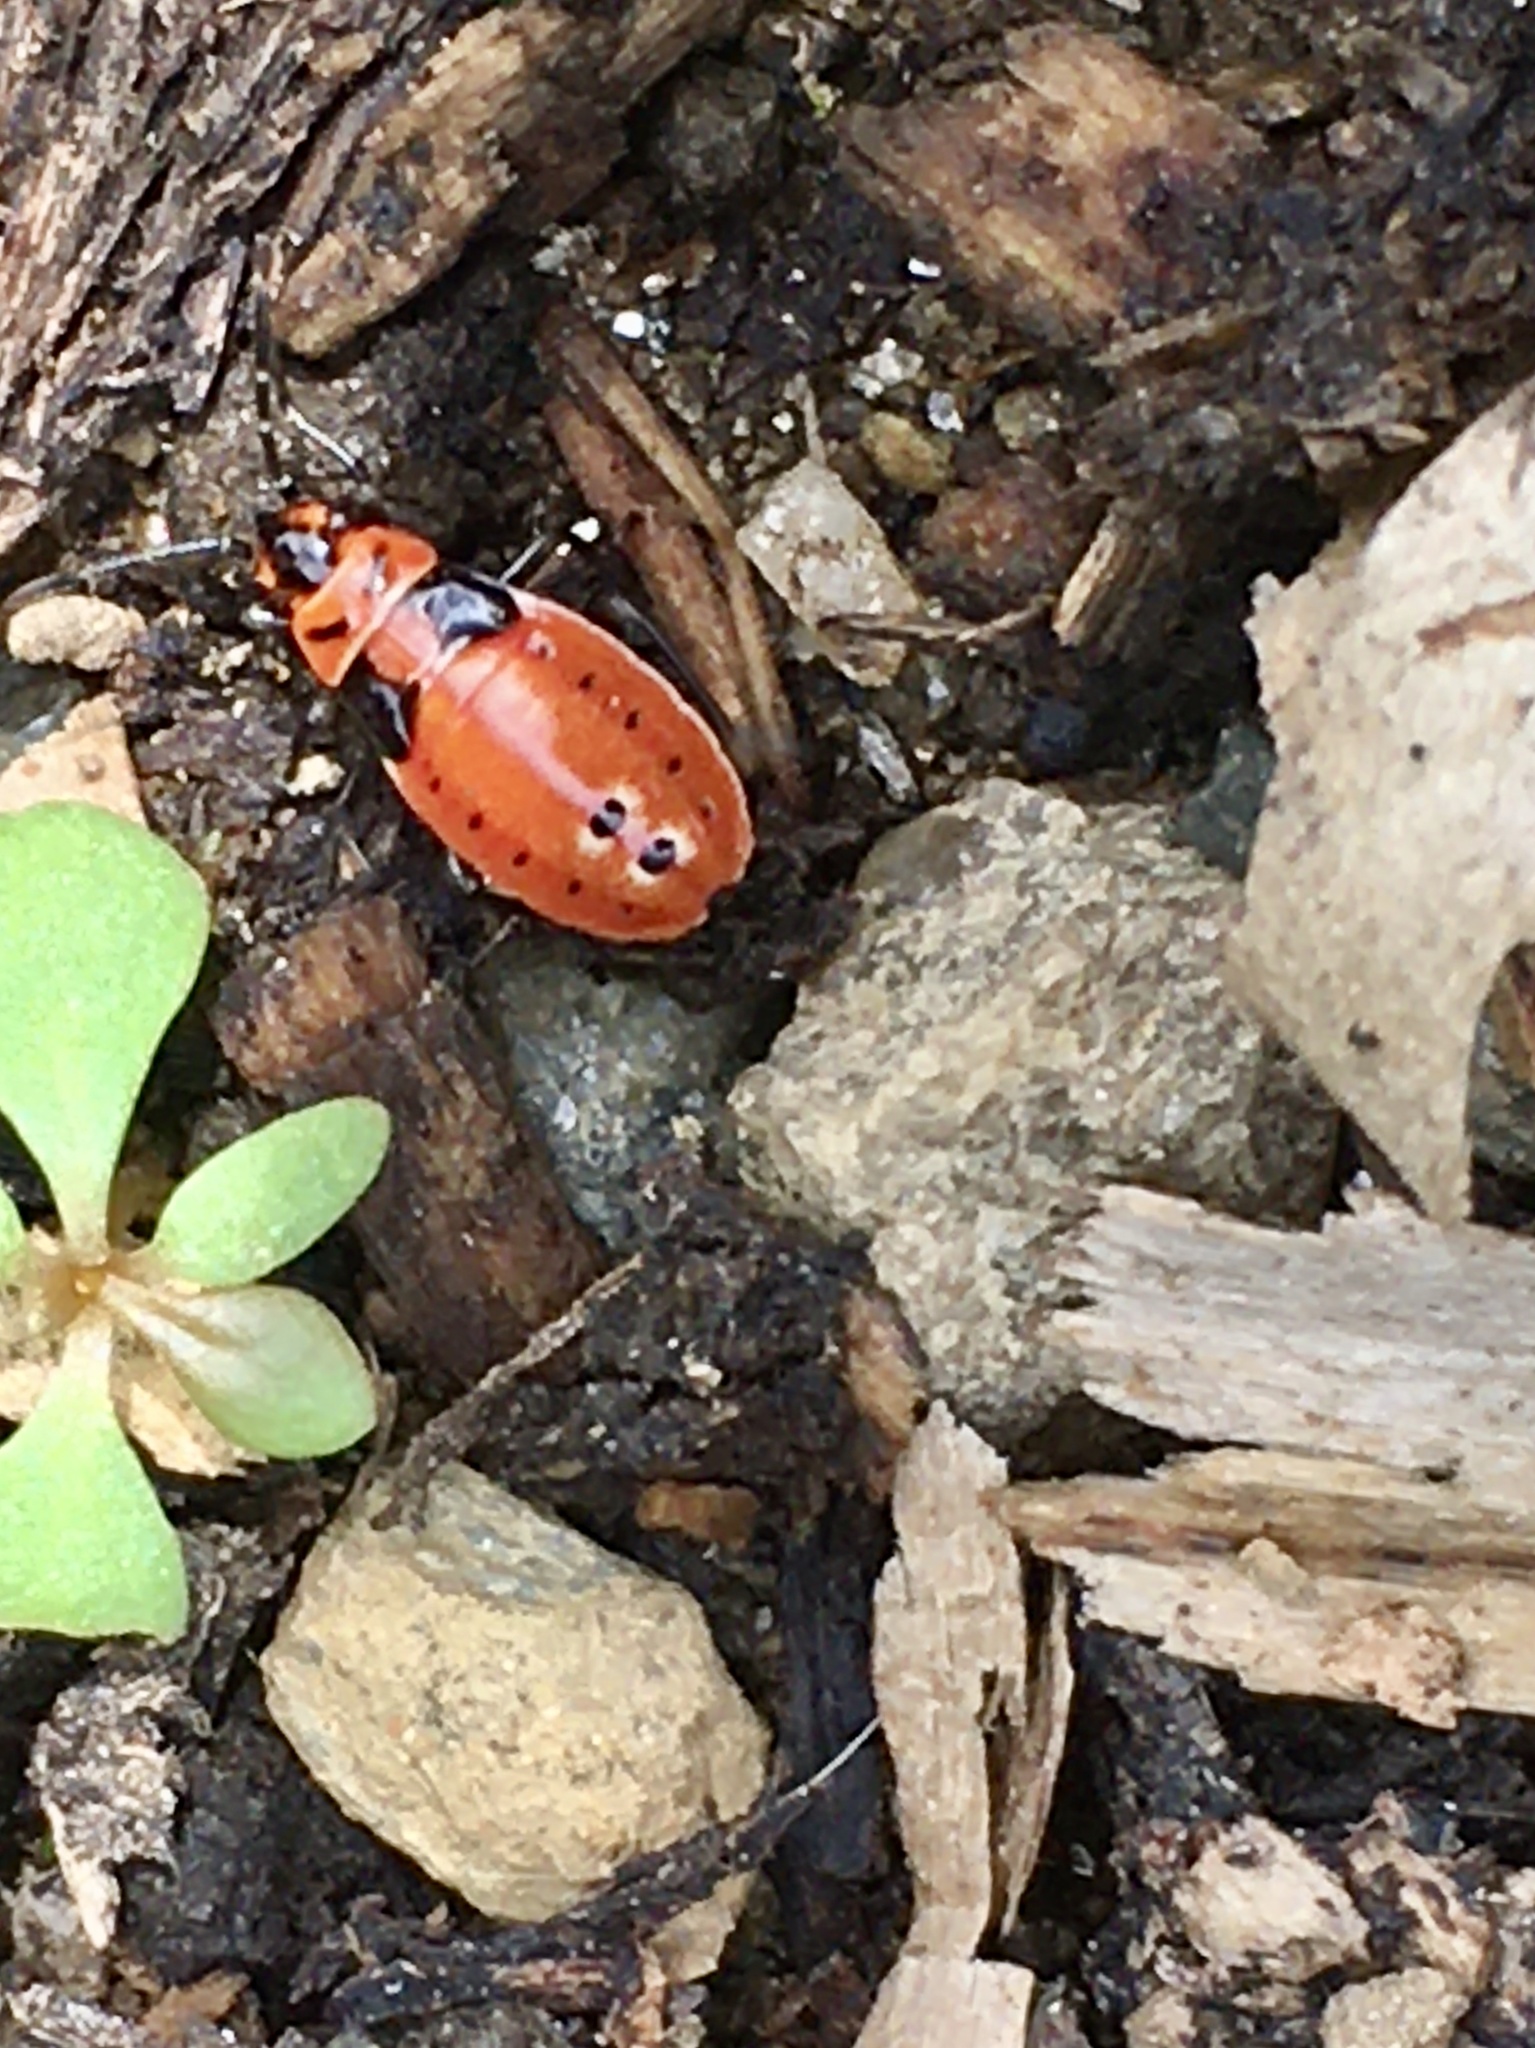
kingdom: Animalia
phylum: Arthropoda
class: Insecta
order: Hemiptera
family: Lygaeidae
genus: Lygaeus
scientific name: Lygaeus kalmii
